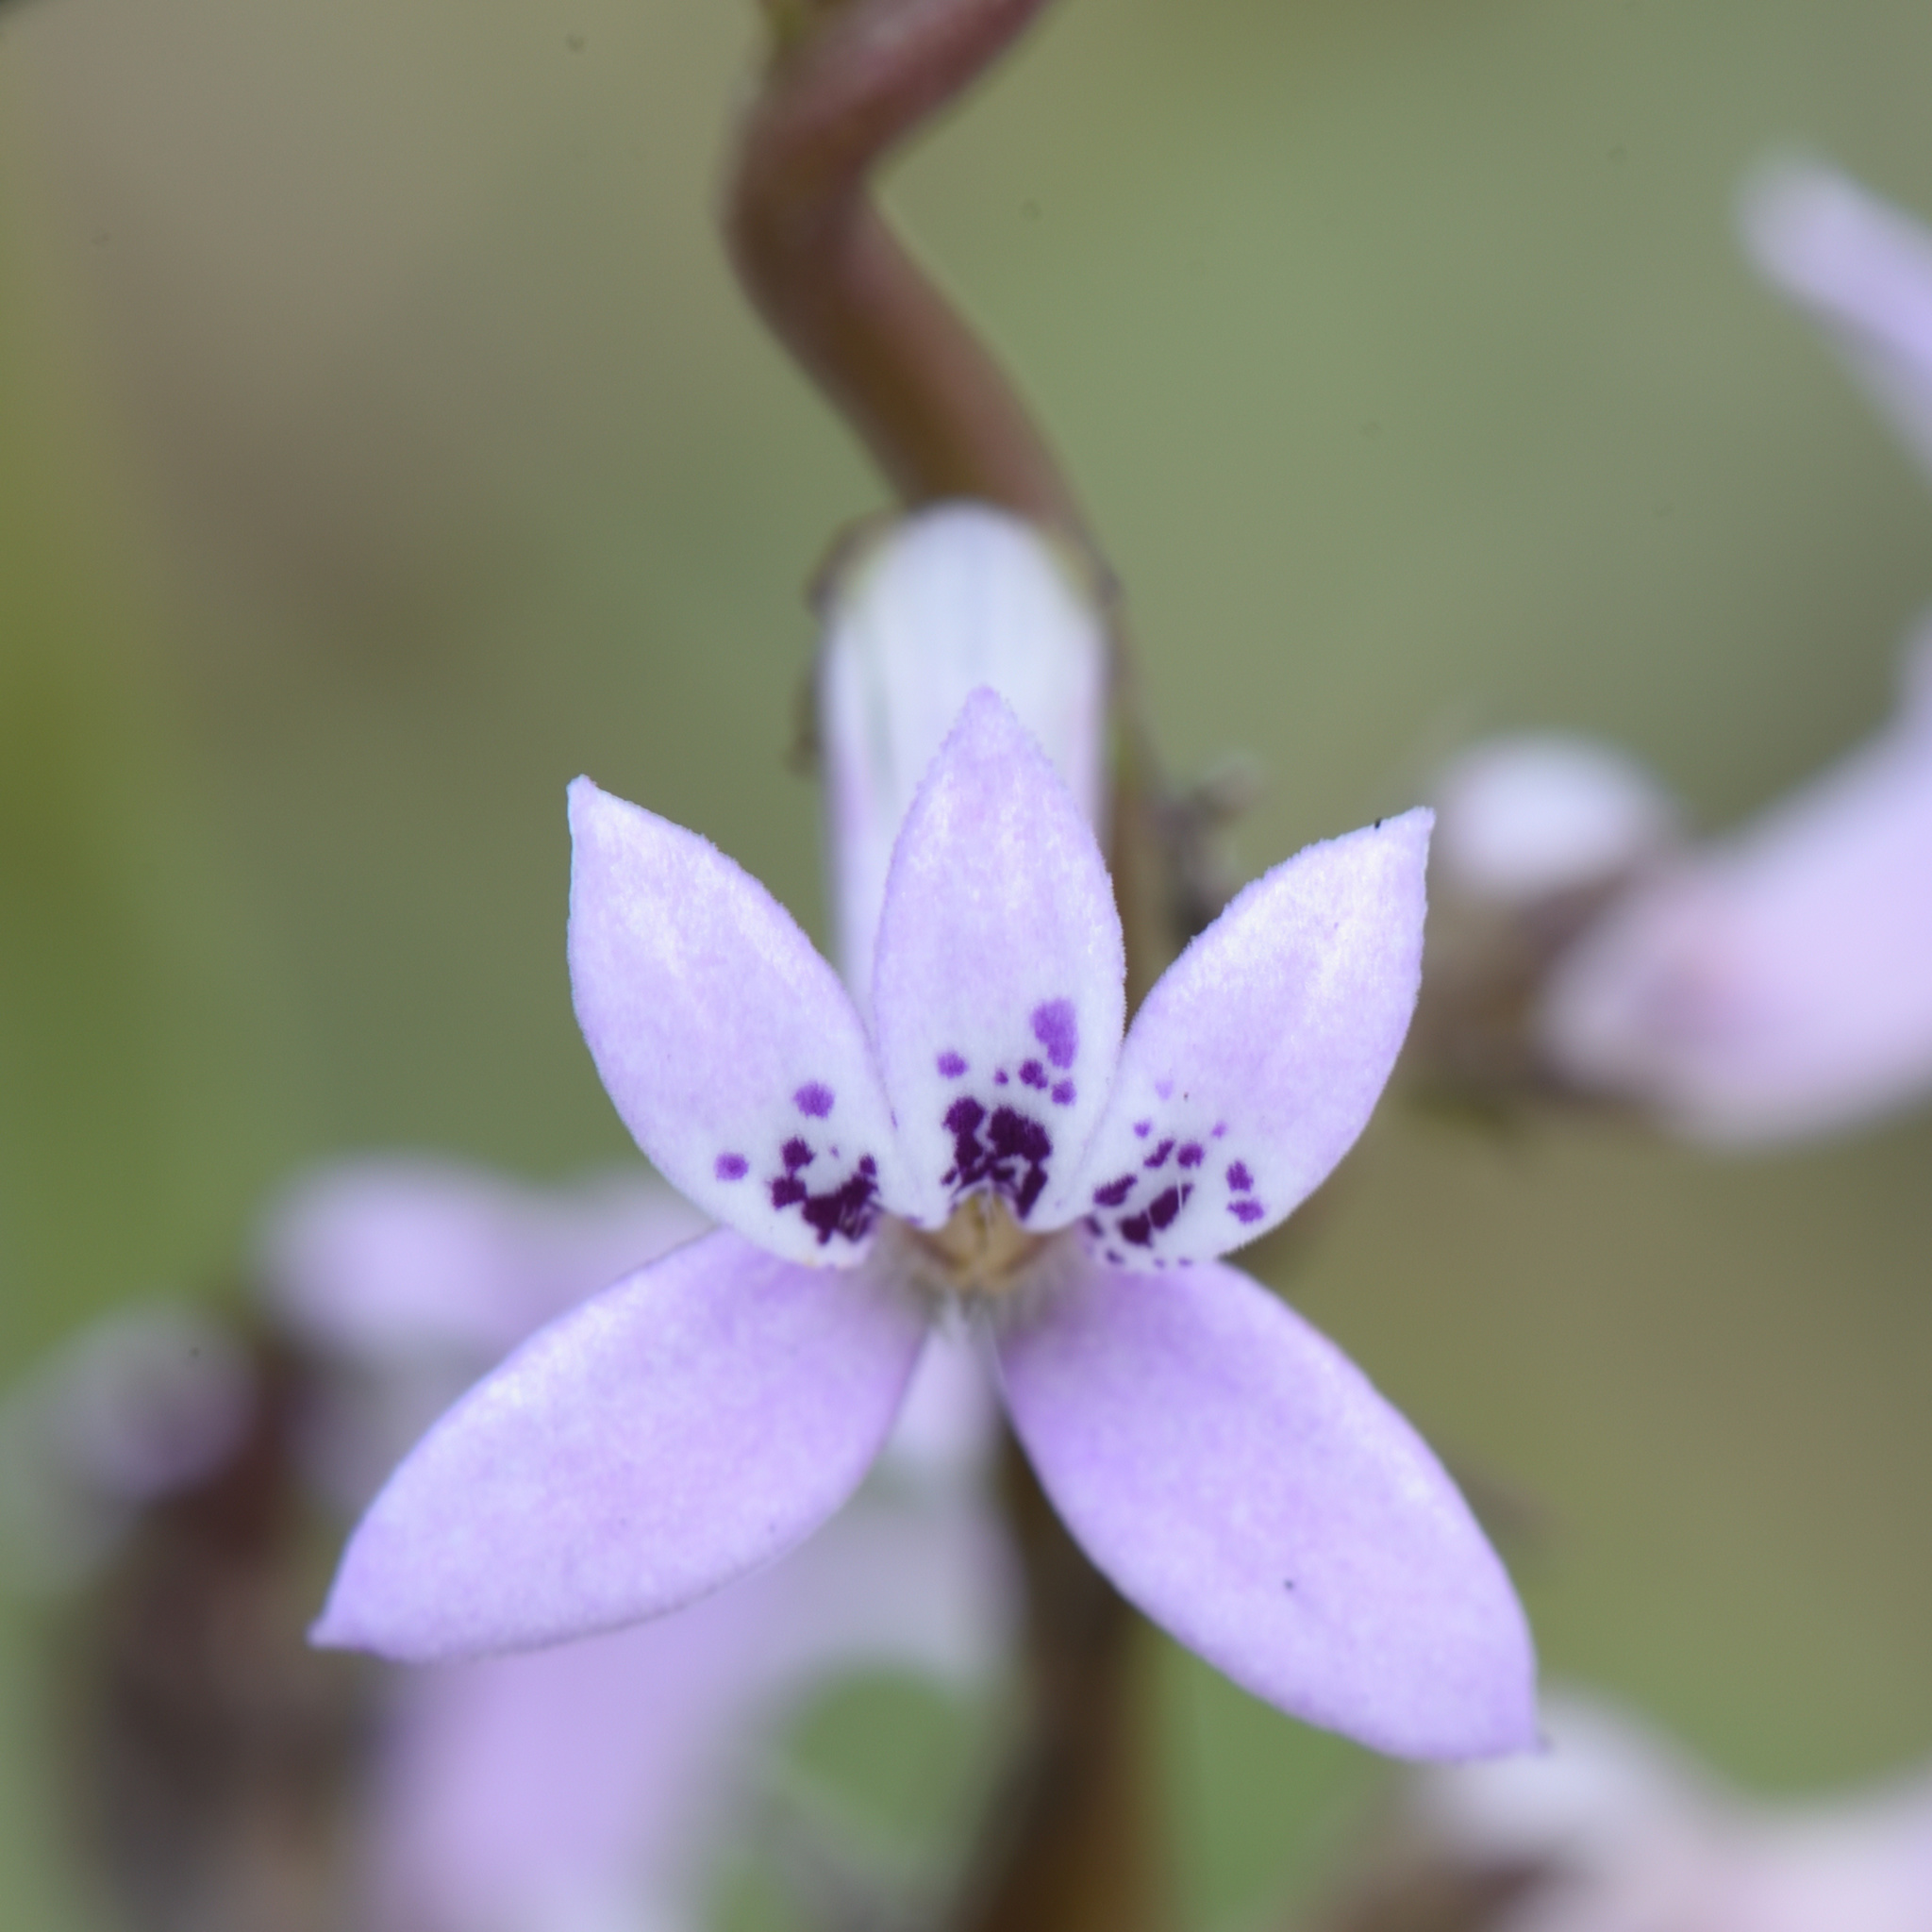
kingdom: Plantae
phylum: Tracheophyta
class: Magnoliopsida
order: Asterales
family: Campanulaceae
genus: Cyphia
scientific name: Cyphia heterophylla
